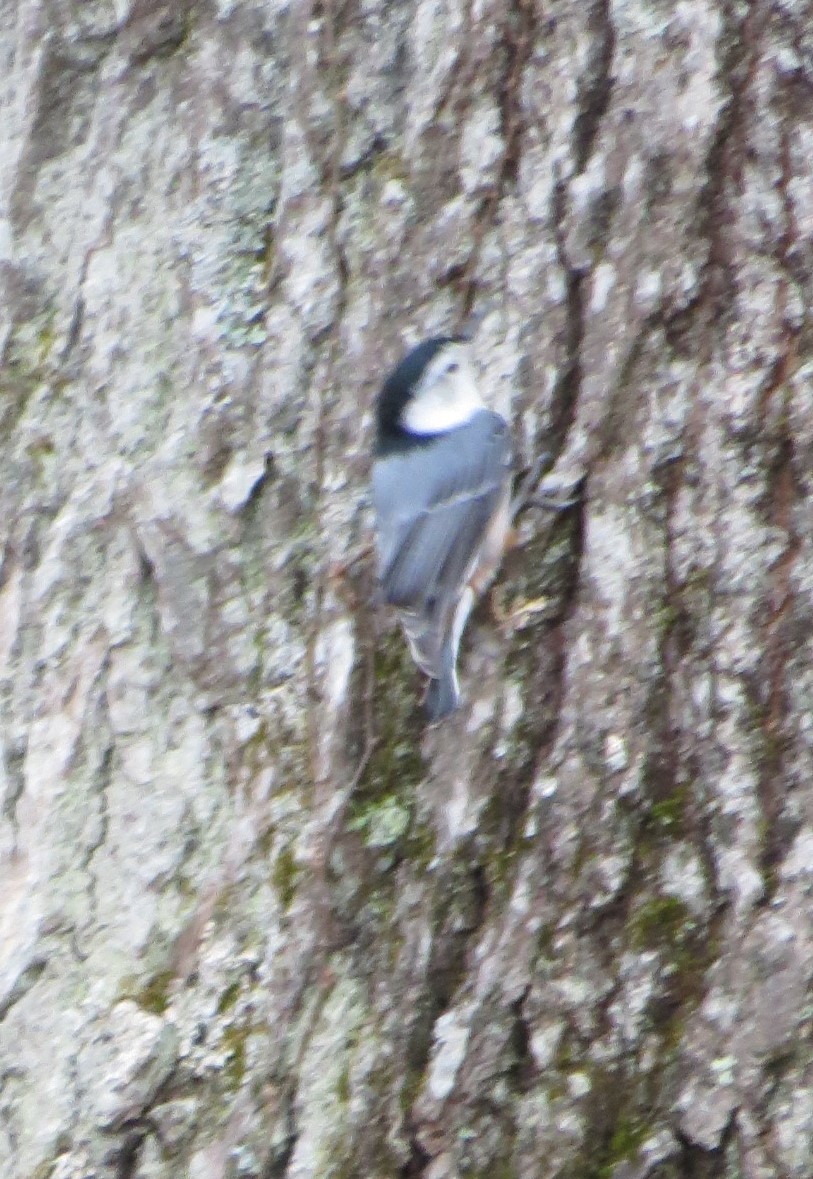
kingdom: Animalia
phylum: Chordata
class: Aves
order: Passeriformes
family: Sittidae
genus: Sitta
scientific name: Sitta carolinensis
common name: White-breasted nuthatch
